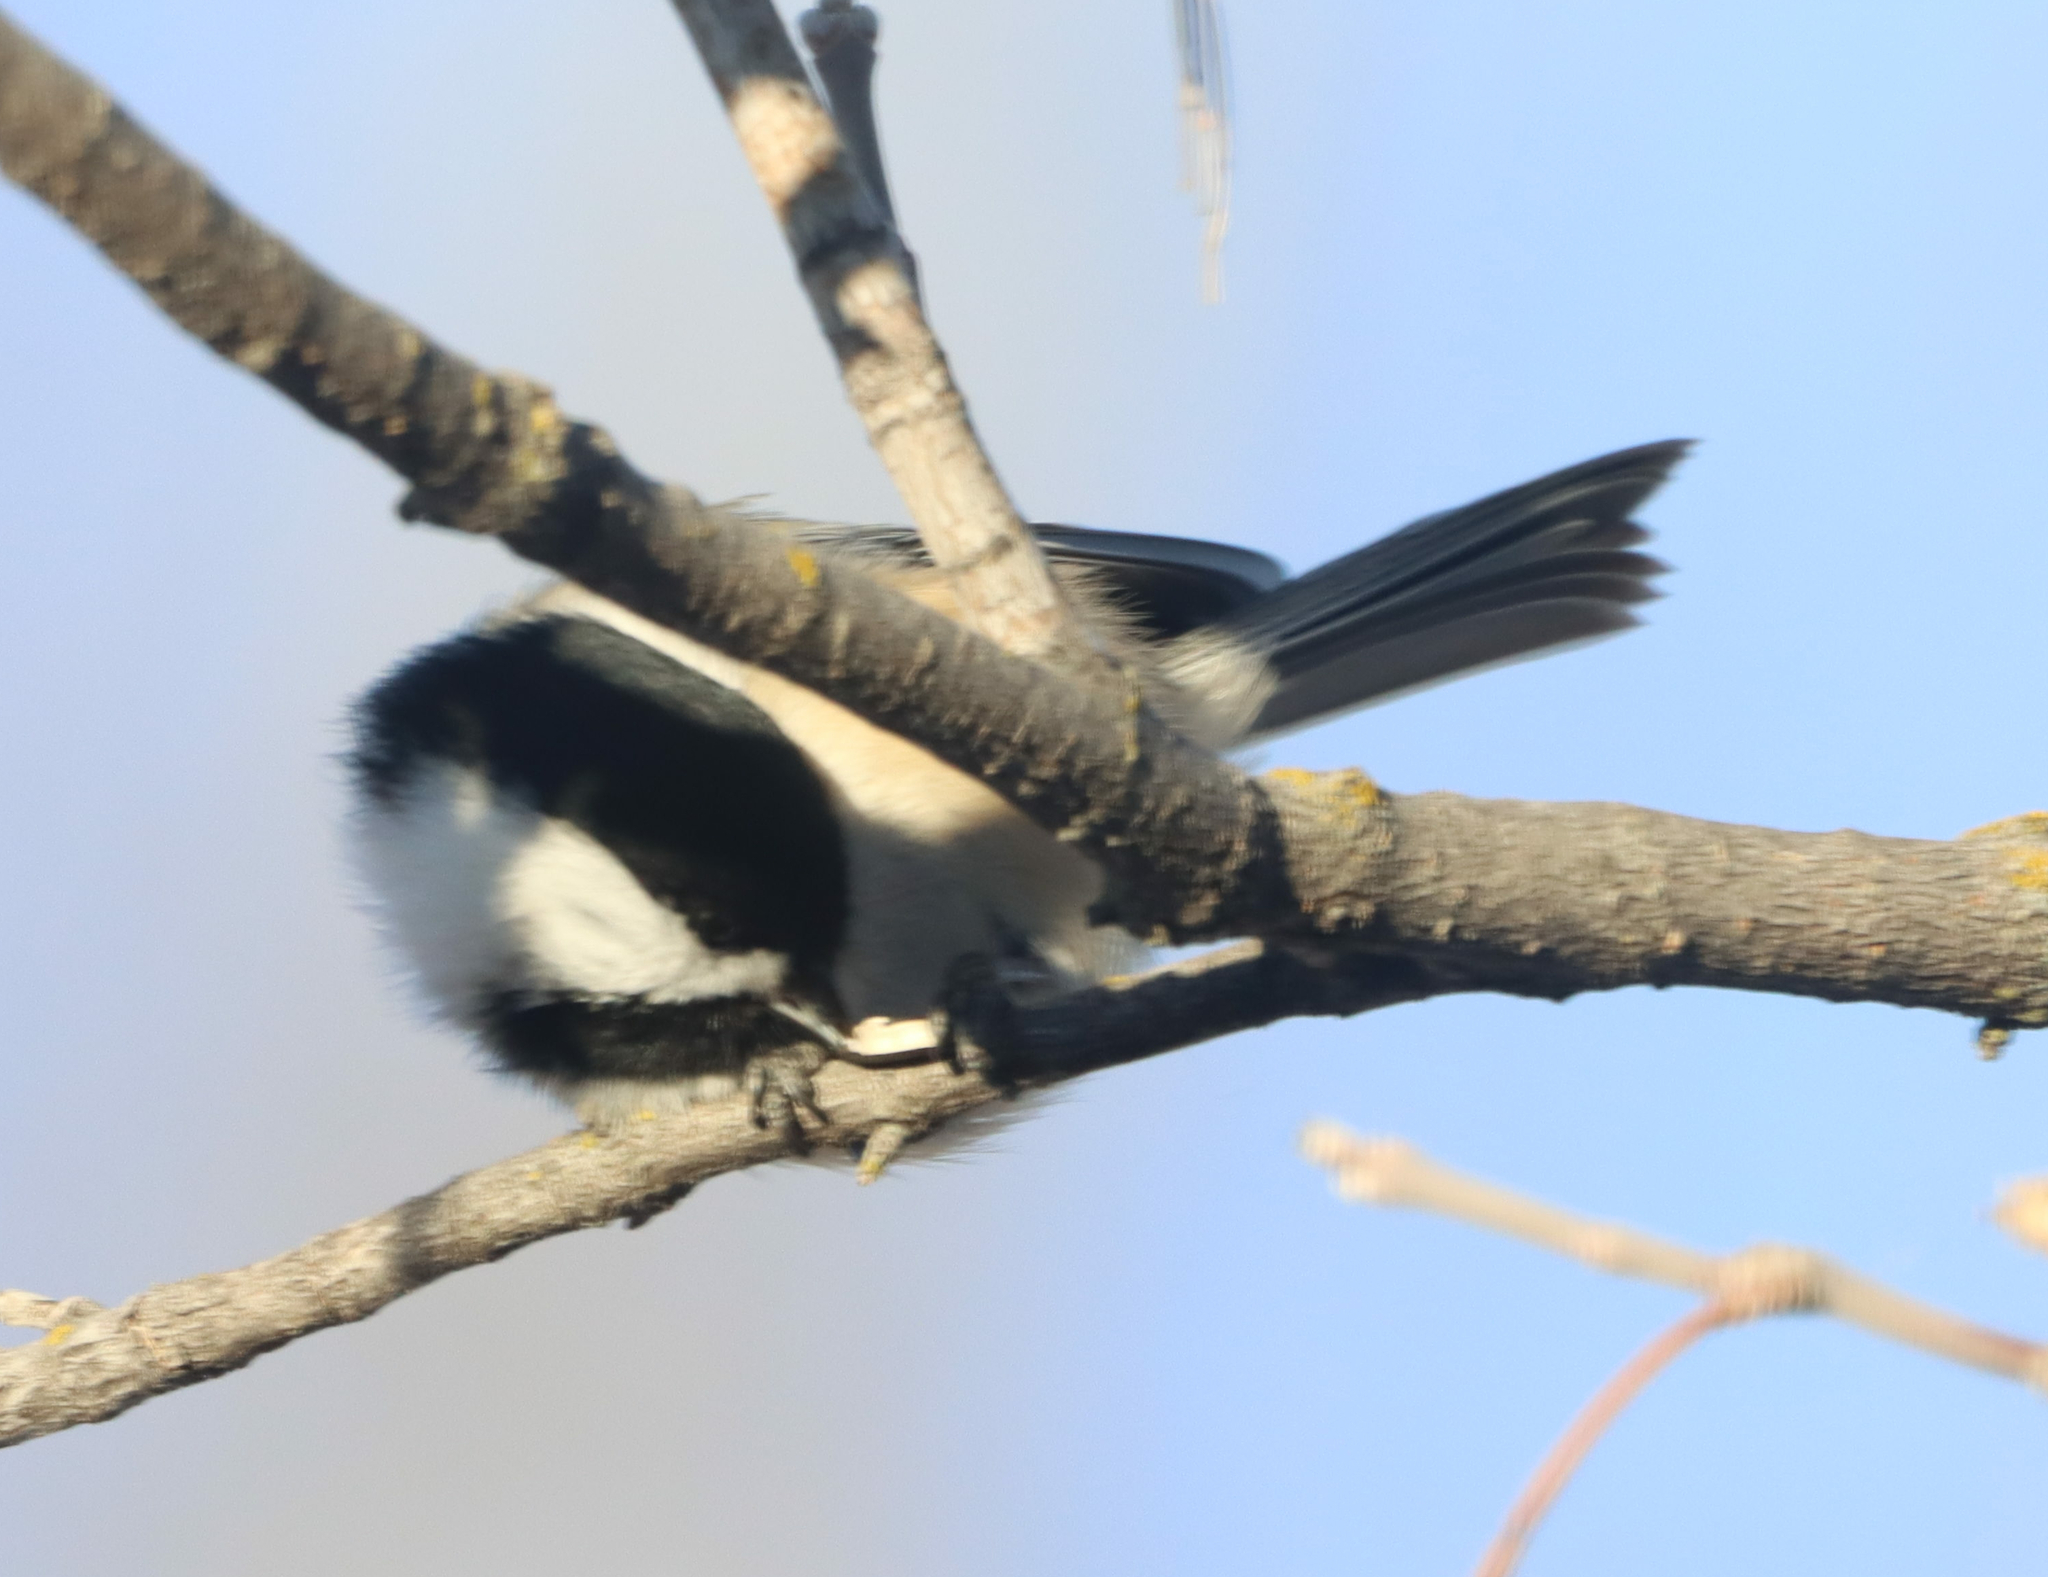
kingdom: Animalia
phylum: Chordata
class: Aves
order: Passeriformes
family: Paridae
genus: Poecile
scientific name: Poecile atricapillus
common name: Black-capped chickadee
